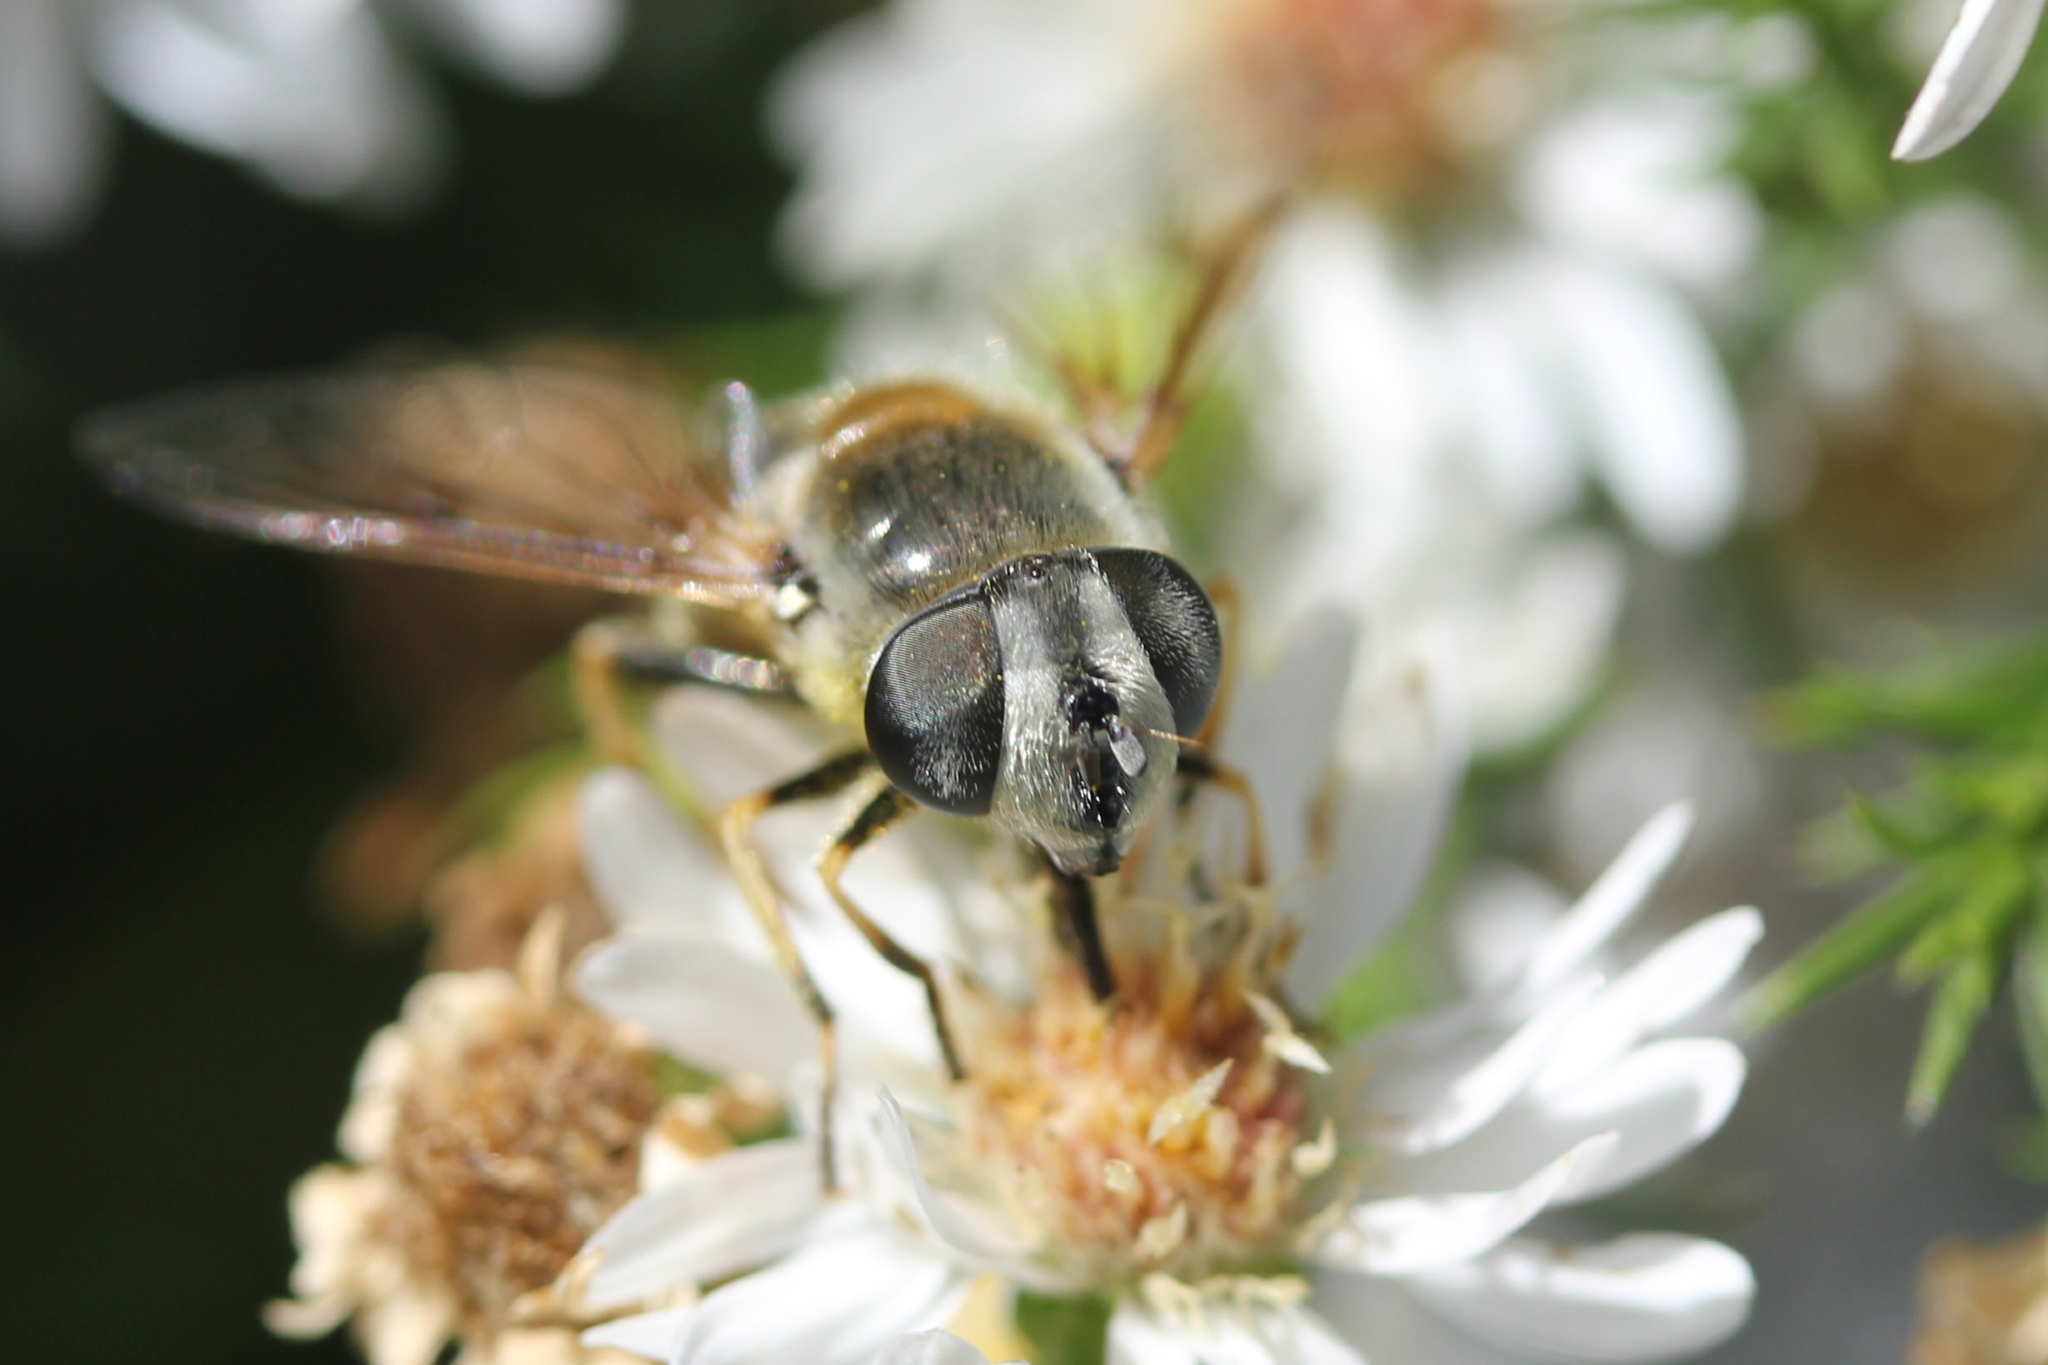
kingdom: Animalia
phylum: Arthropoda
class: Insecta
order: Diptera
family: Syrphidae
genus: Eristalis
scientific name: Eristalis stipator
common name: Yellow-shouldered drone fly
